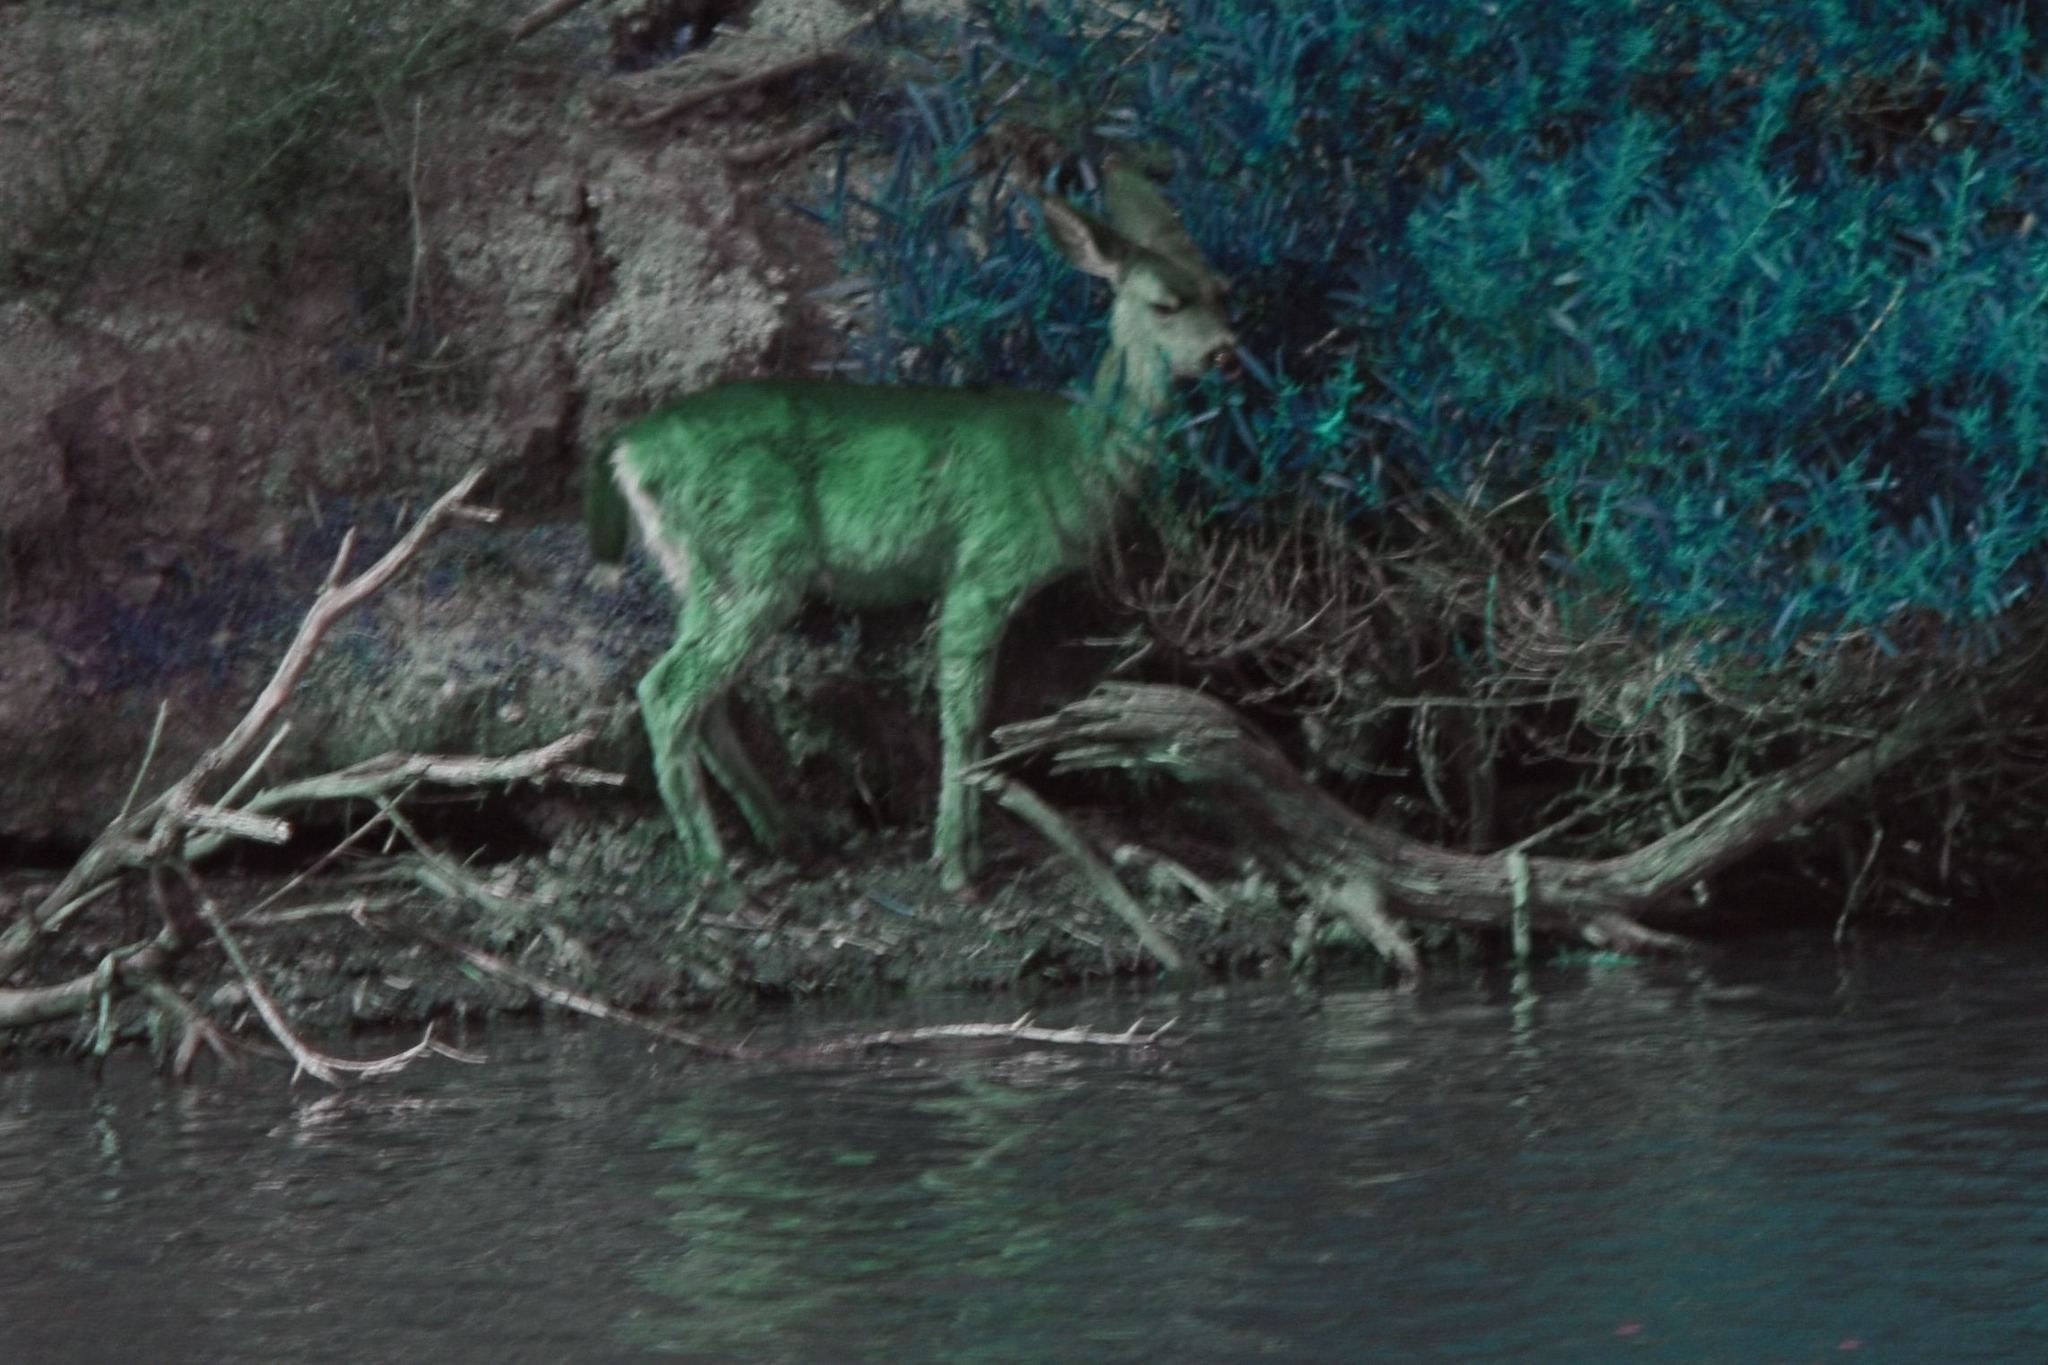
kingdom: Animalia
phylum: Chordata
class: Mammalia
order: Artiodactyla
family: Cervidae
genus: Odocoileus
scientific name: Odocoileus hemionus
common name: Mule deer
